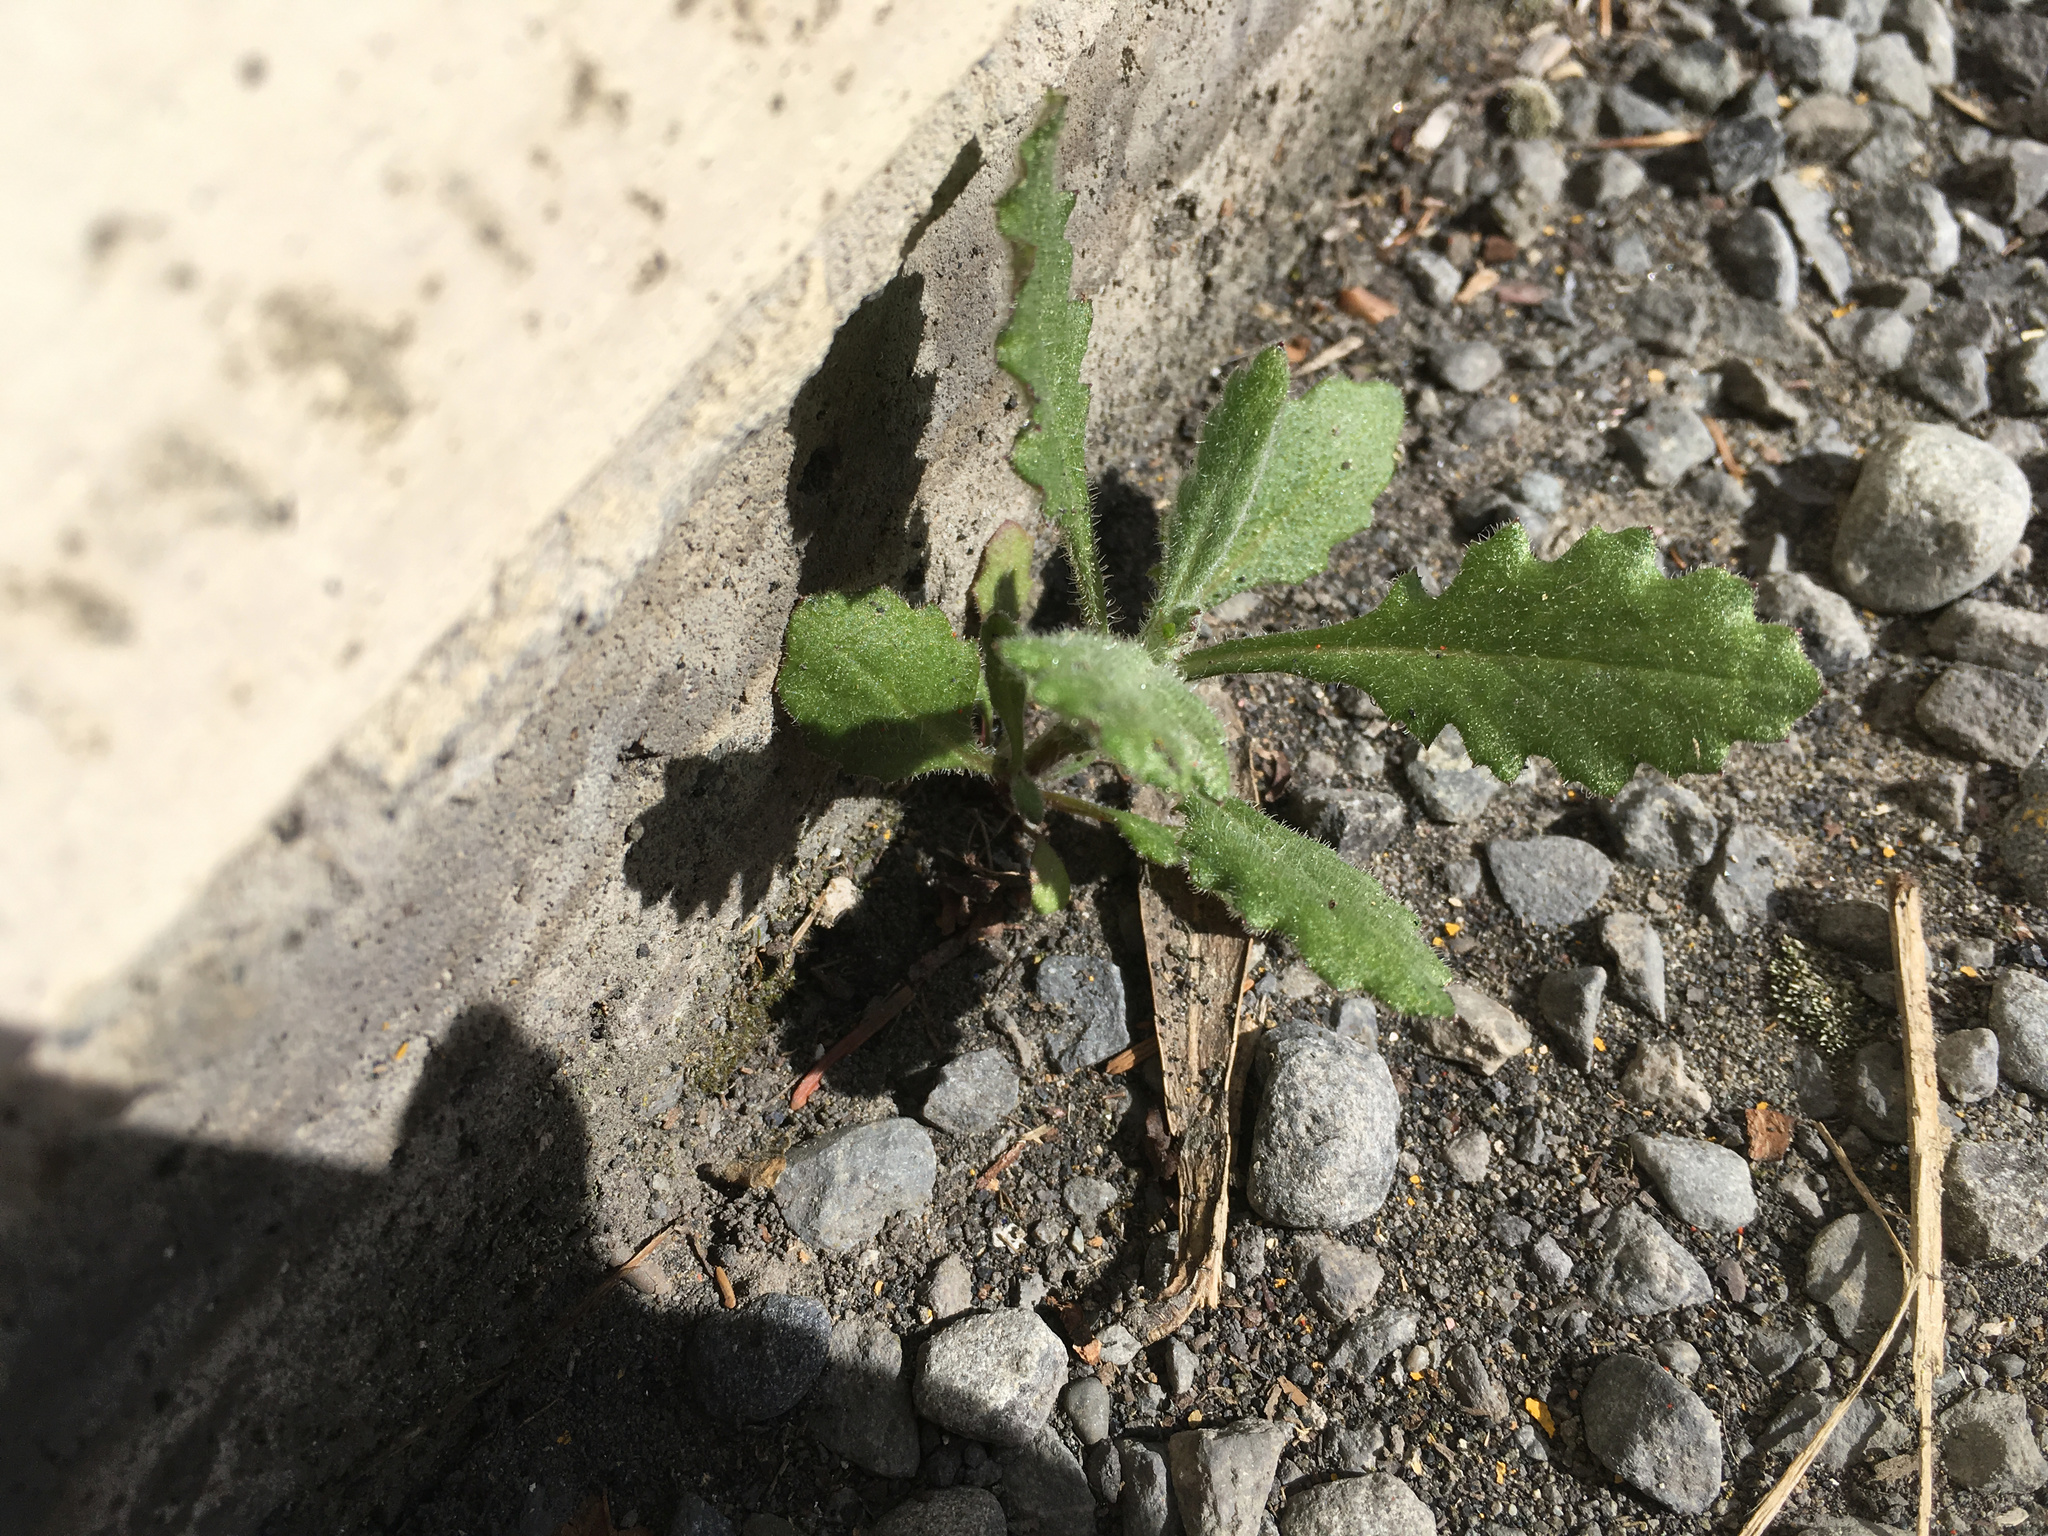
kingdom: Plantae
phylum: Tracheophyta
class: Magnoliopsida
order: Asterales
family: Asteraceae
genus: Senecio
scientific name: Senecio glomeratus
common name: Cutleaf burnweed
